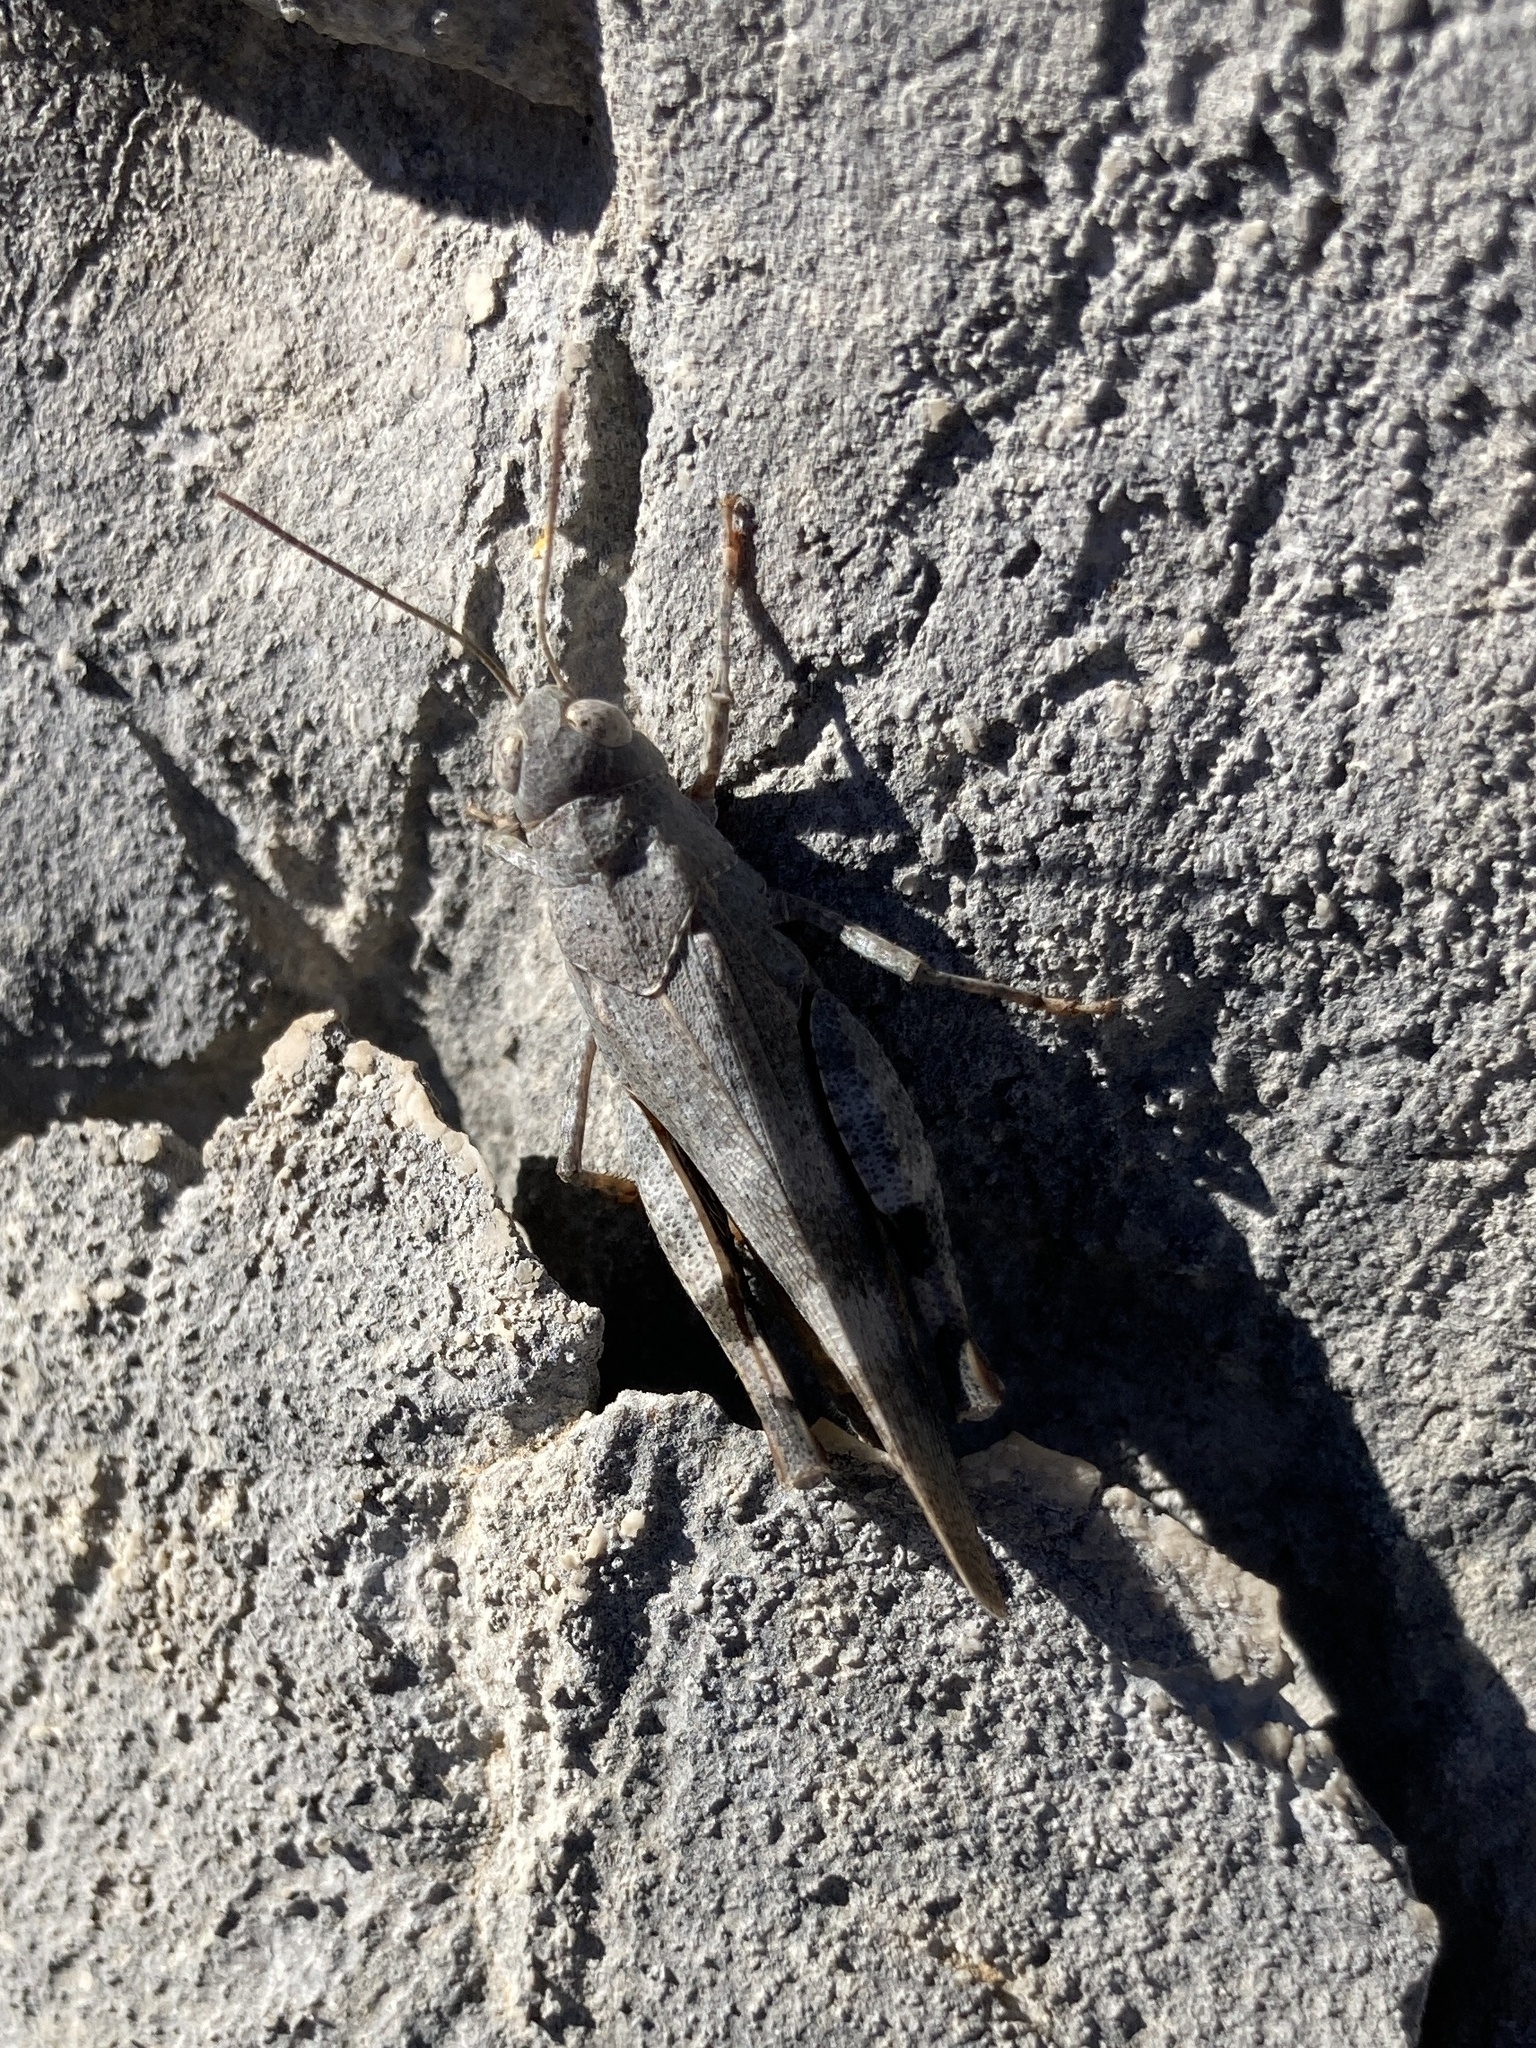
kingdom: Animalia
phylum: Arthropoda
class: Insecta
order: Orthoptera
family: Acrididae
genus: Oedipoda
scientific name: Oedipoda germanica
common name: Red band-winged grasshopper
